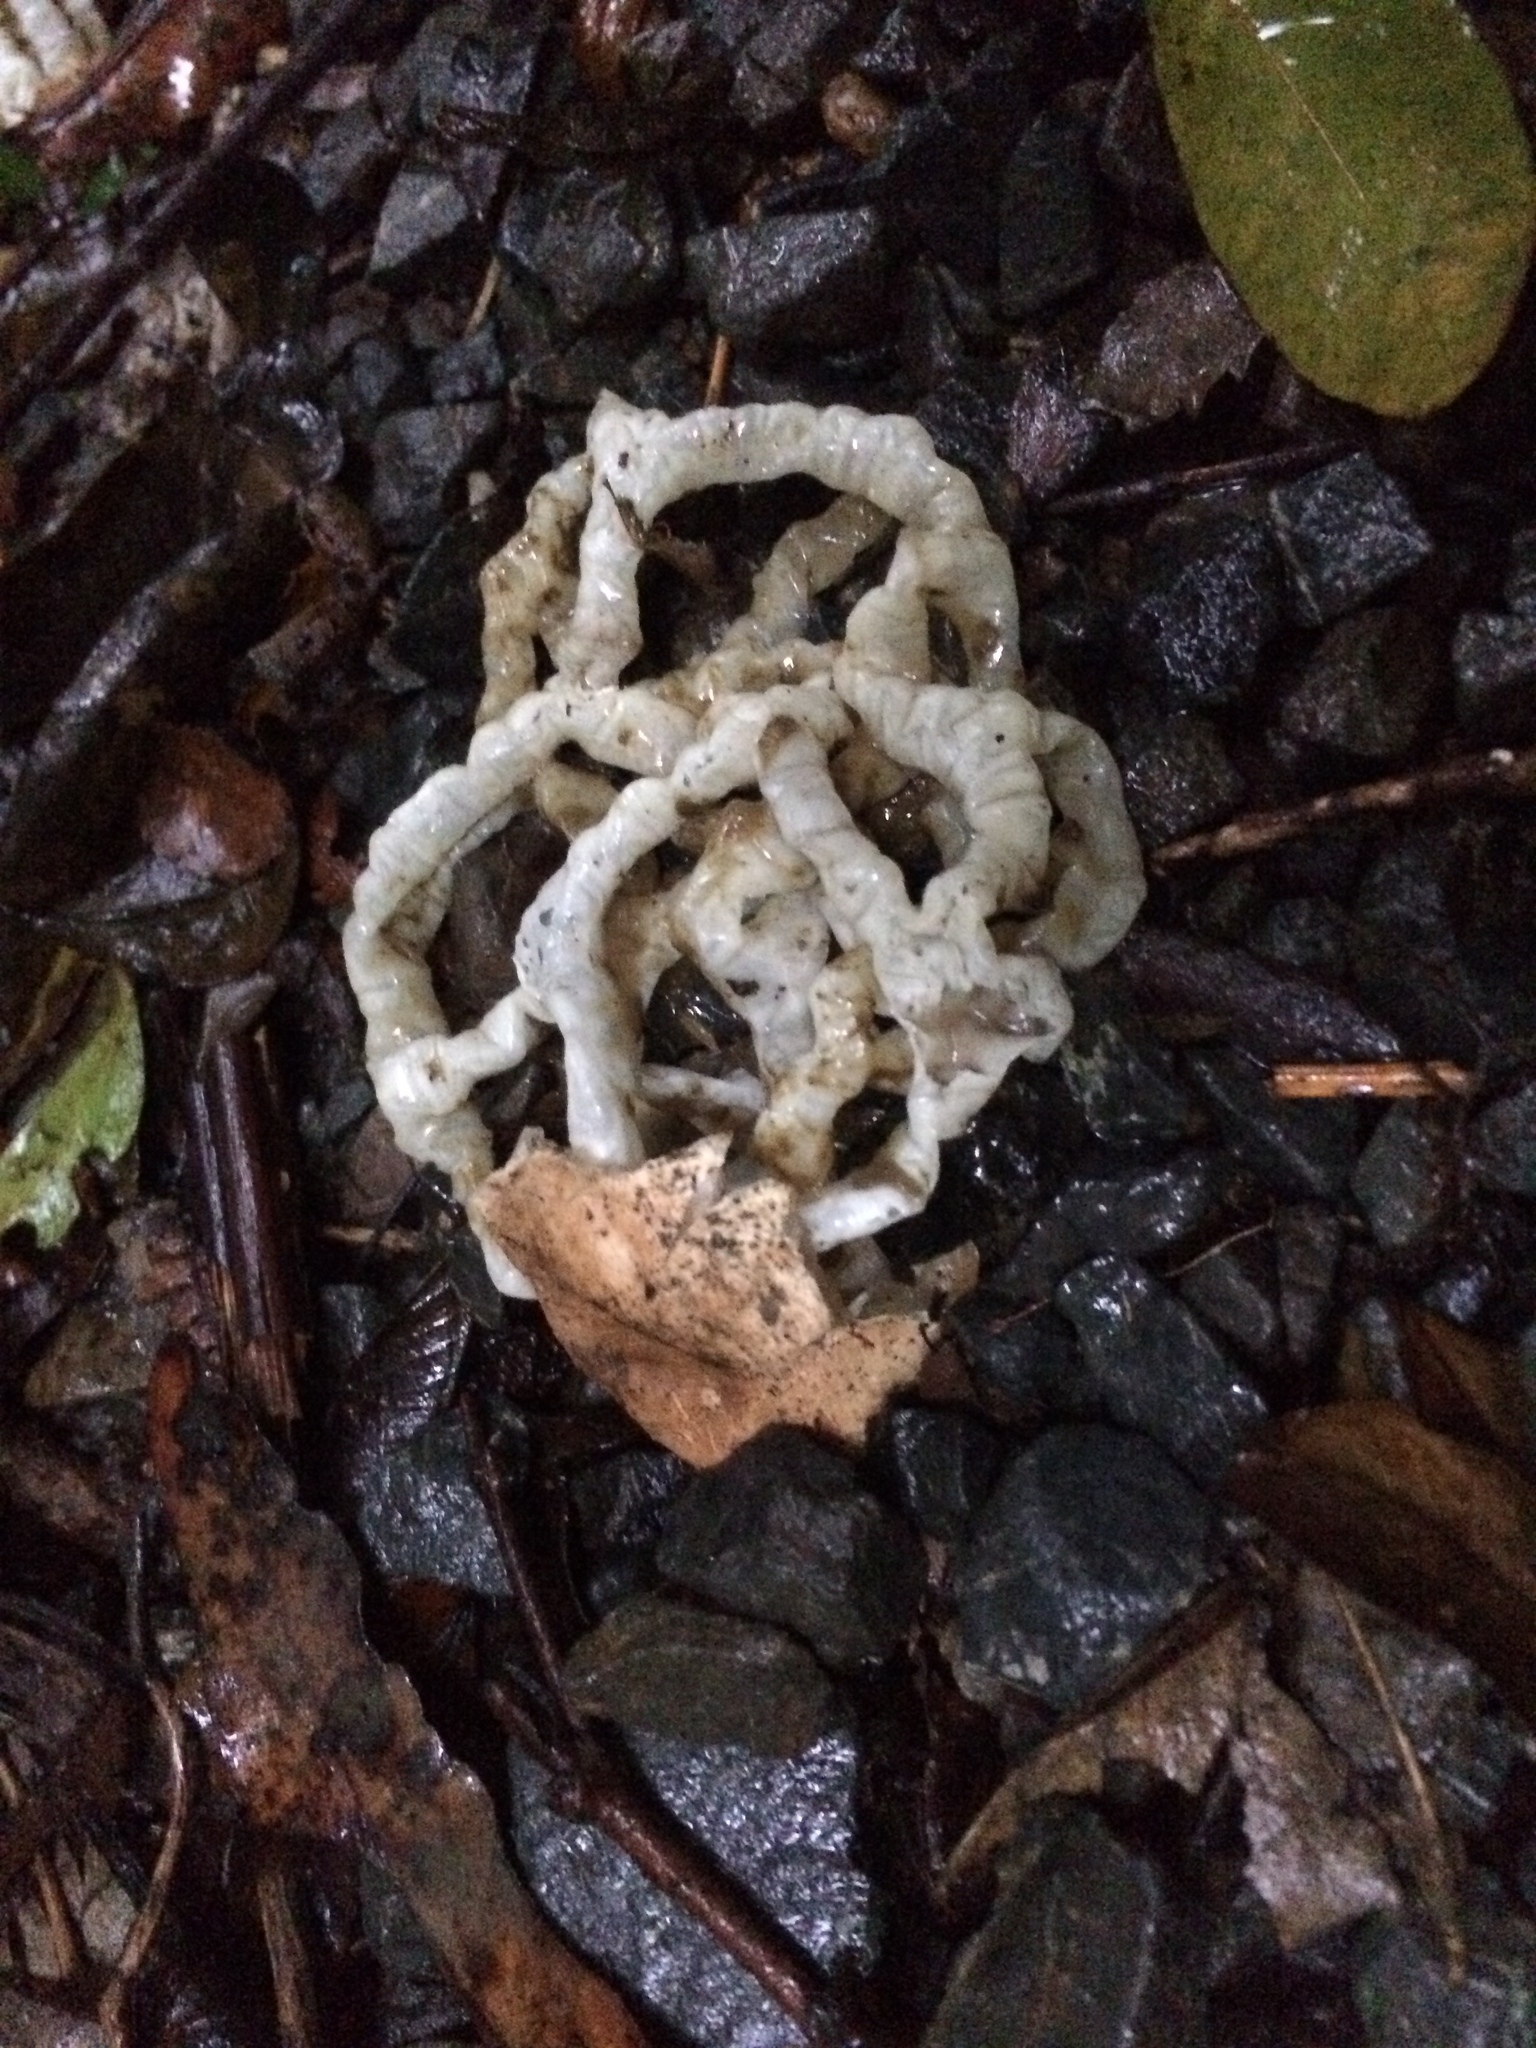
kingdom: Fungi
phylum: Basidiomycota
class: Agaricomycetes
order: Phallales
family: Phallaceae
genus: Ileodictyon
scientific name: Ileodictyon cibarium
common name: Basket fungus
